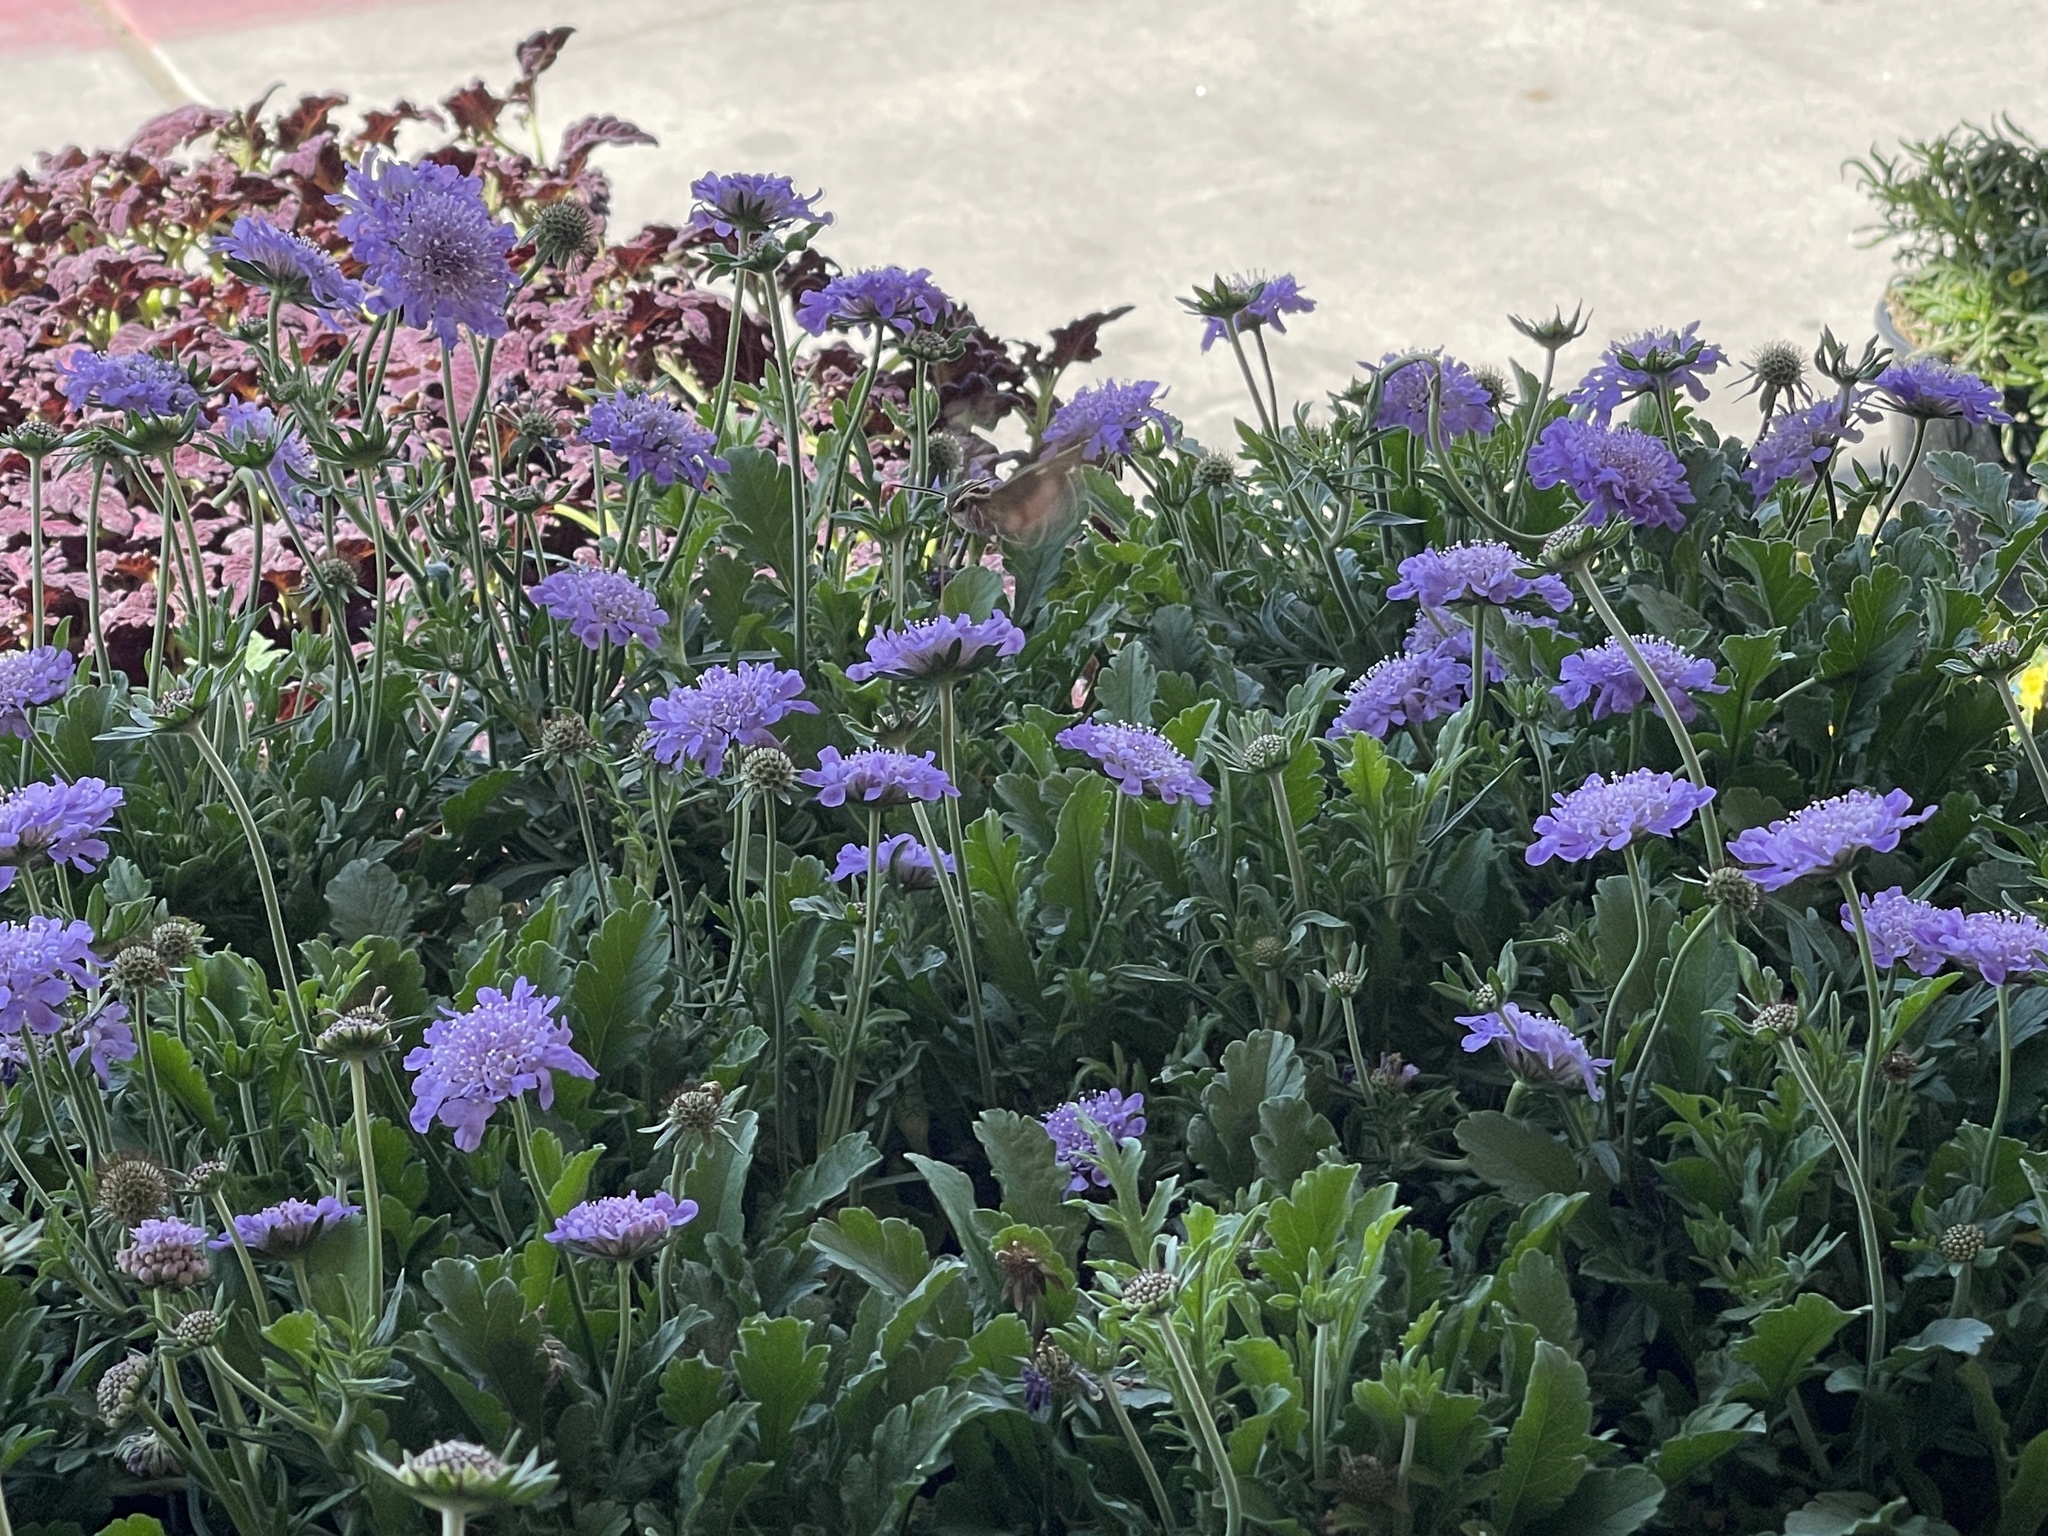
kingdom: Animalia
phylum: Arthropoda
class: Insecta
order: Lepidoptera
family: Sphingidae
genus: Hyles
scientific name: Hyles lineata
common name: White-lined sphinx
